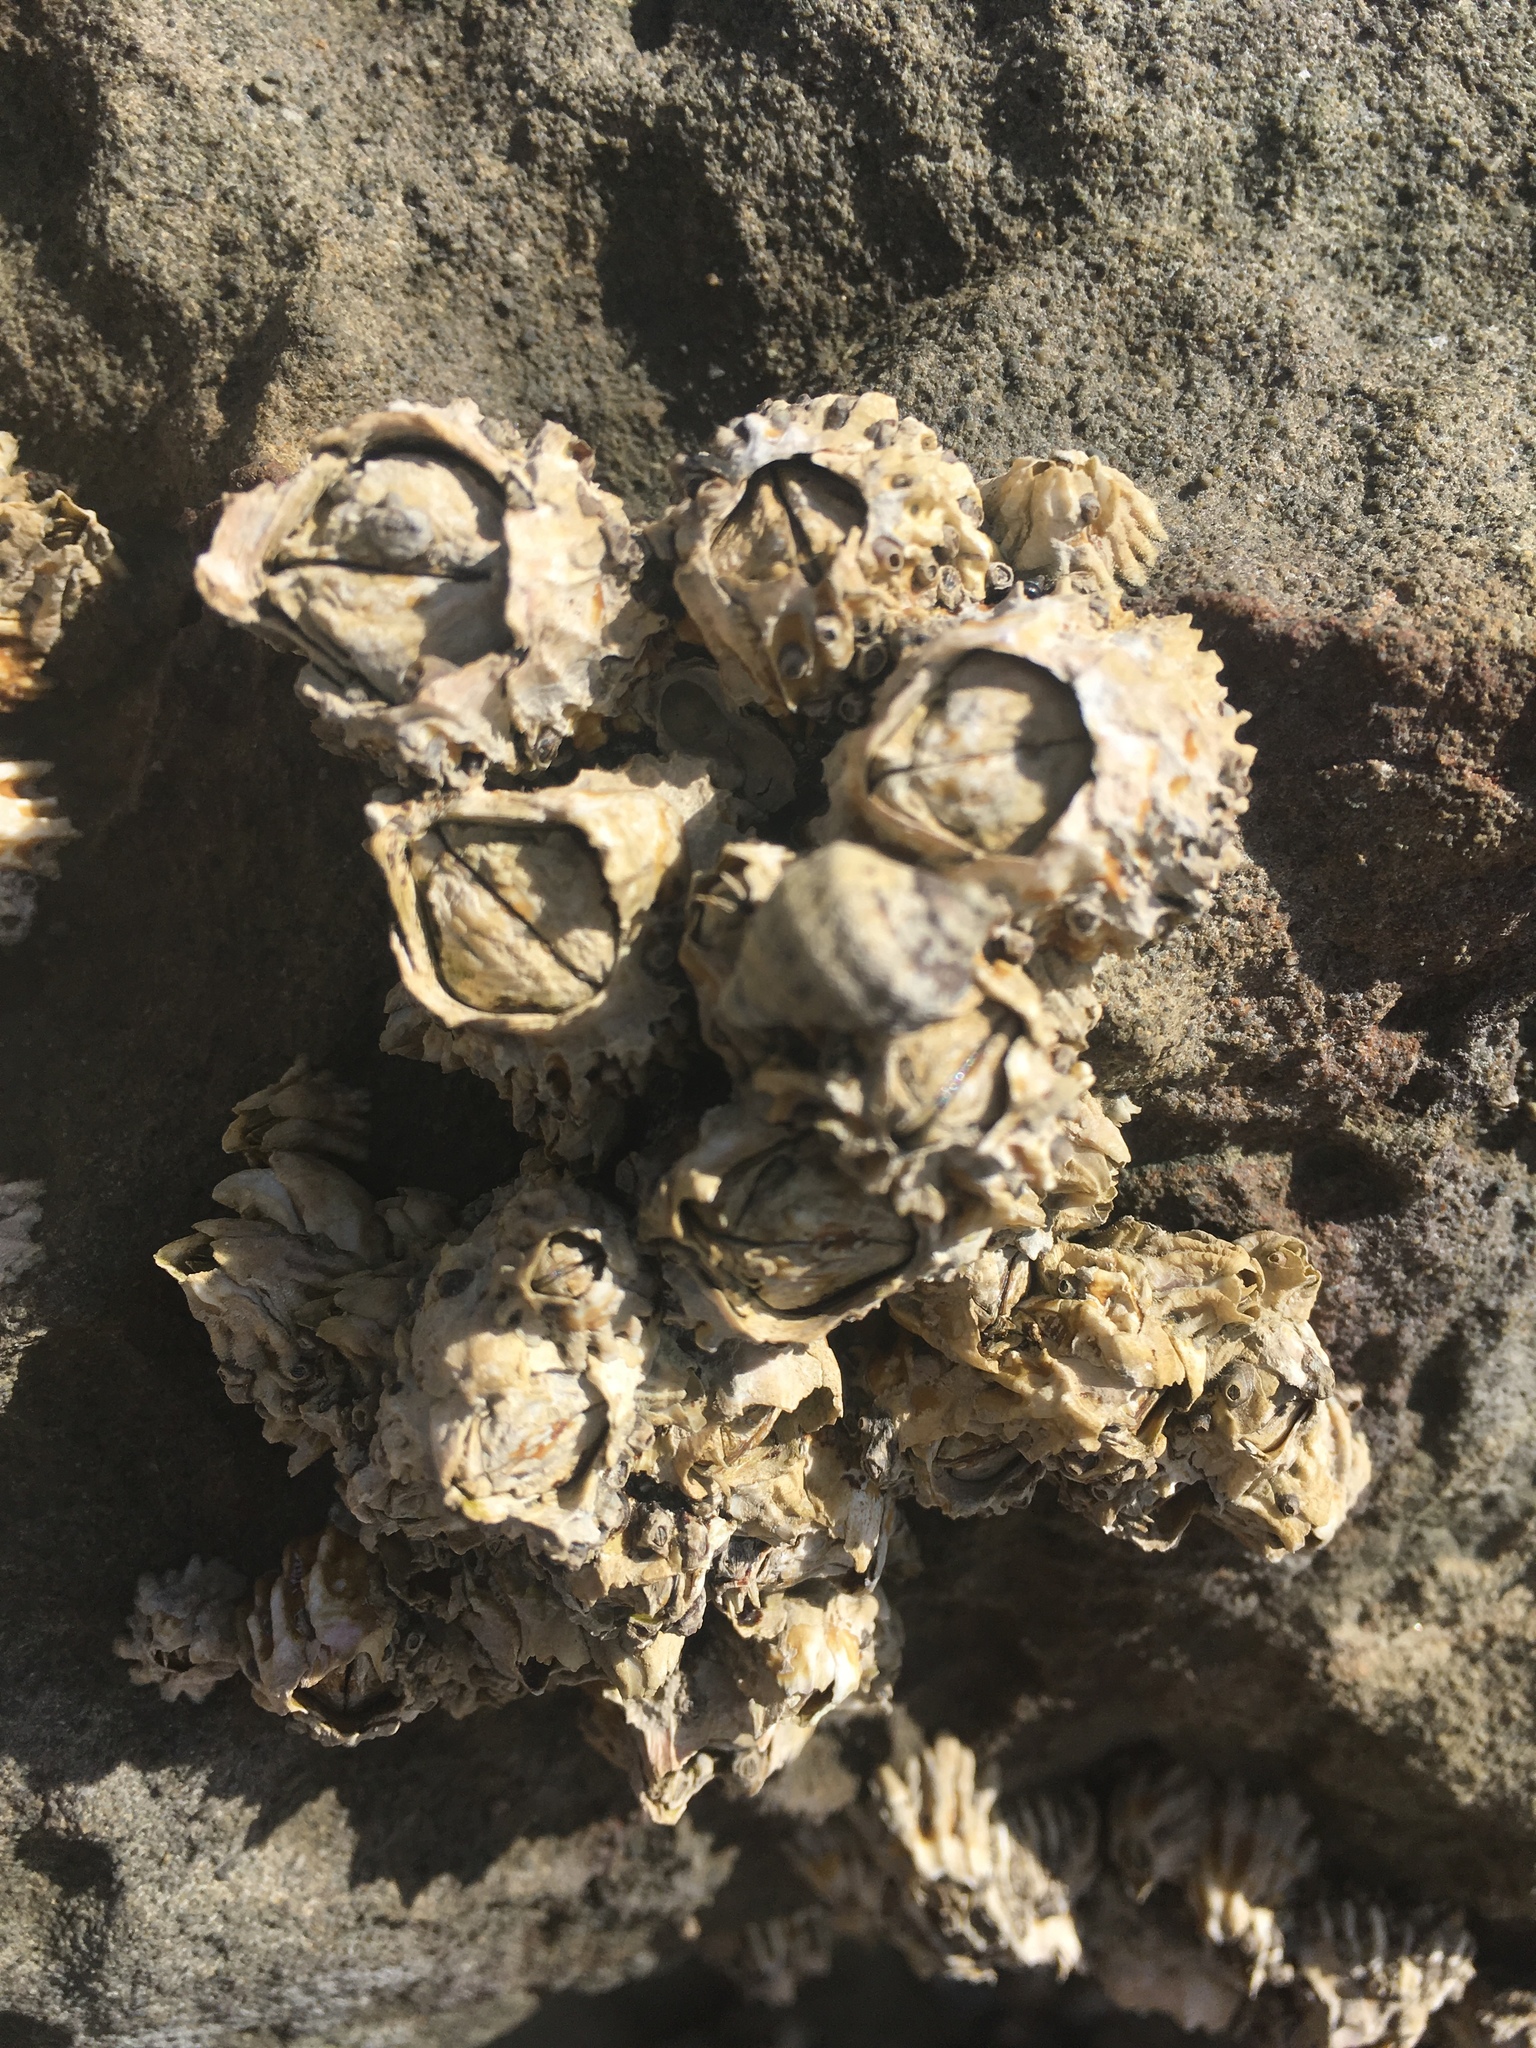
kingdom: Animalia
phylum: Arthropoda
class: Maxillopoda
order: Sessilia
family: Tetraclitidae
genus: Epopella
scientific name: Epopella plicata
